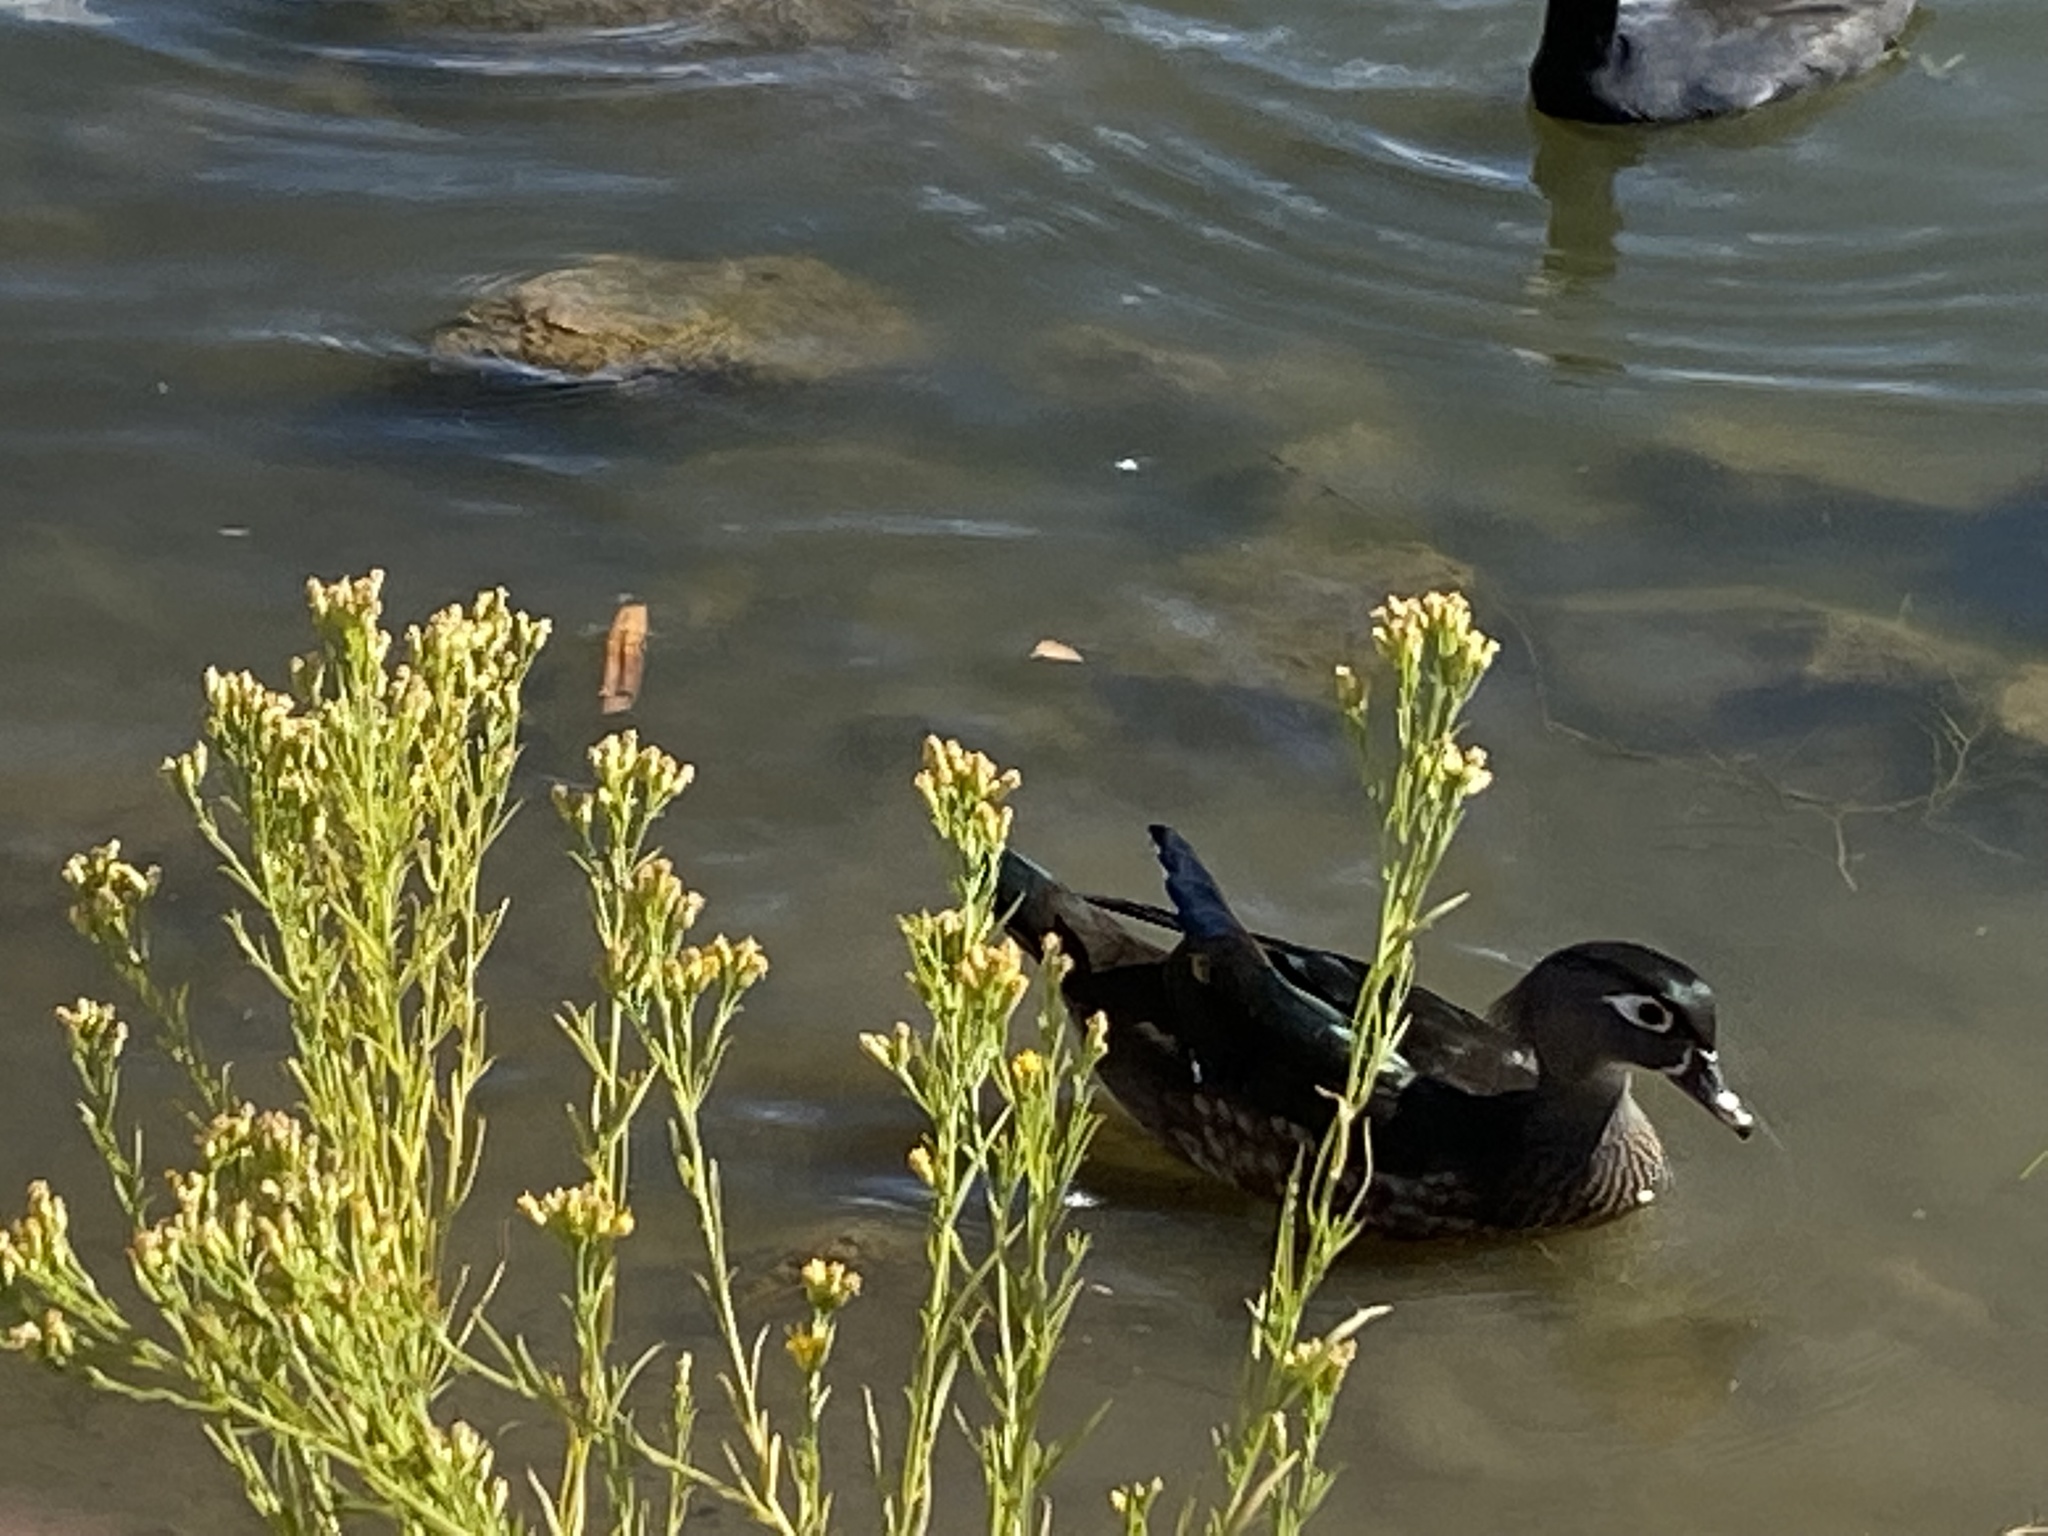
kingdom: Animalia
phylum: Chordata
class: Aves
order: Anseriformes
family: Anatidae
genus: Aix
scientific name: Aix sponsa
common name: Wood duck
